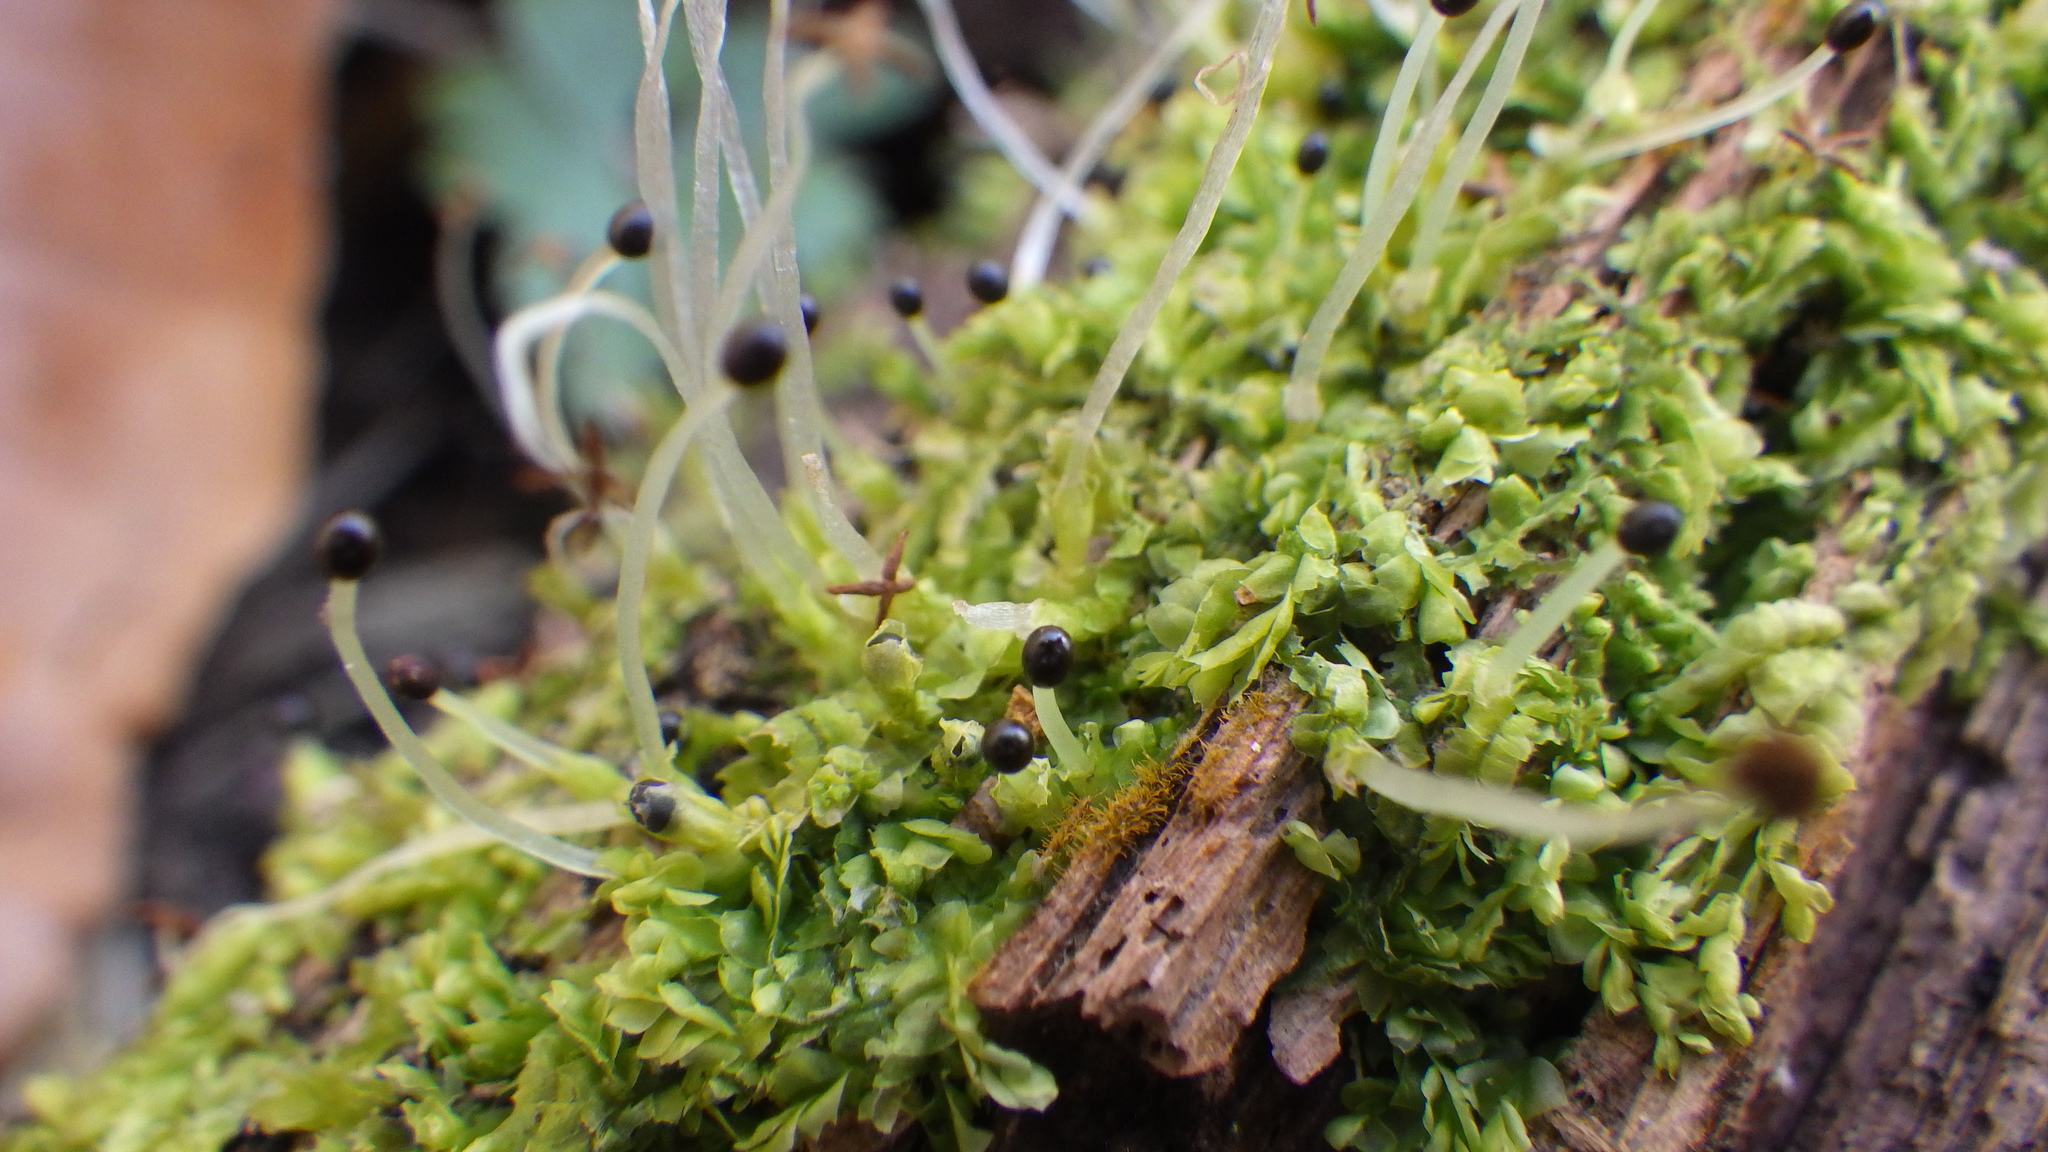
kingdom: Plantae
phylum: Marchantiophyta
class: Jungermanniopsida
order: Jungermanniales
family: Lophocoleaceae
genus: Lophocolea
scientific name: Lophocolea heterophylla
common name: Variable-leaved crestwort
